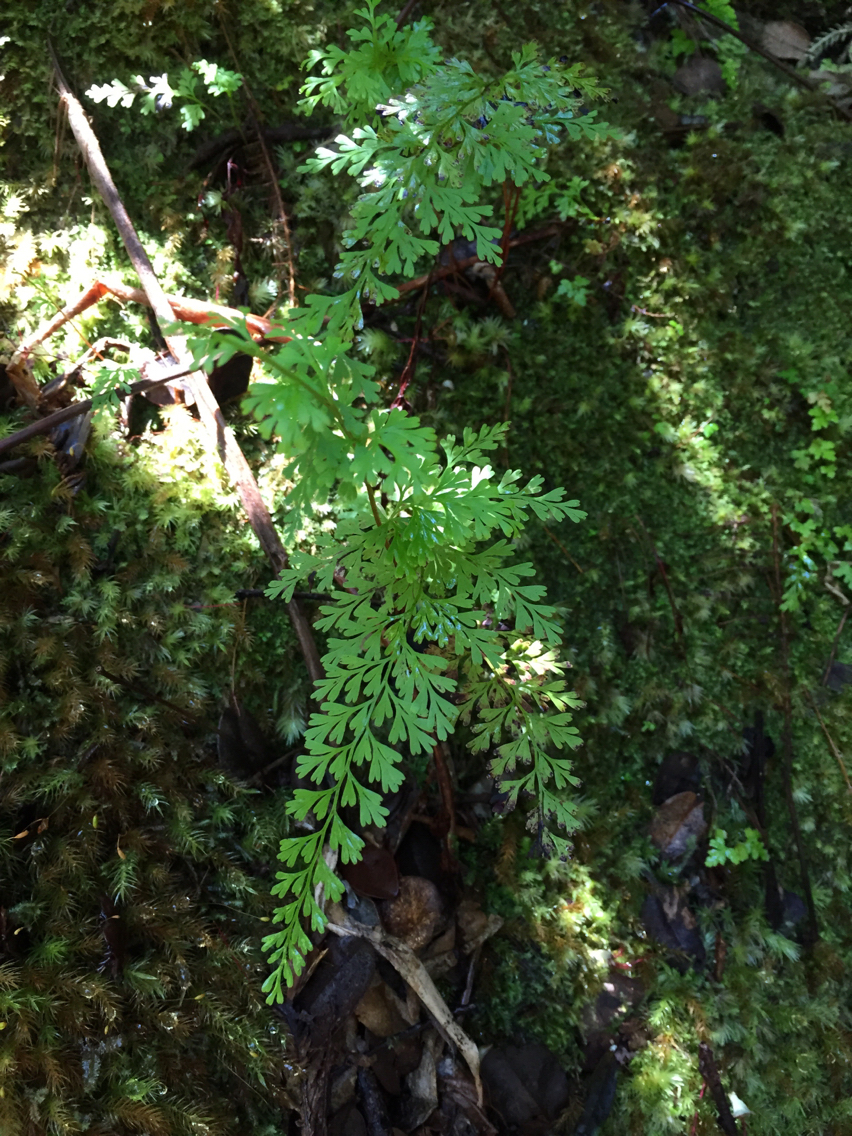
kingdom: Plantae
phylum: Tracheophyta
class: Polypodiopsida
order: Polypodiales
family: Lindsaeaceae
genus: Odontosoria
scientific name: Odontosoria chinensis
